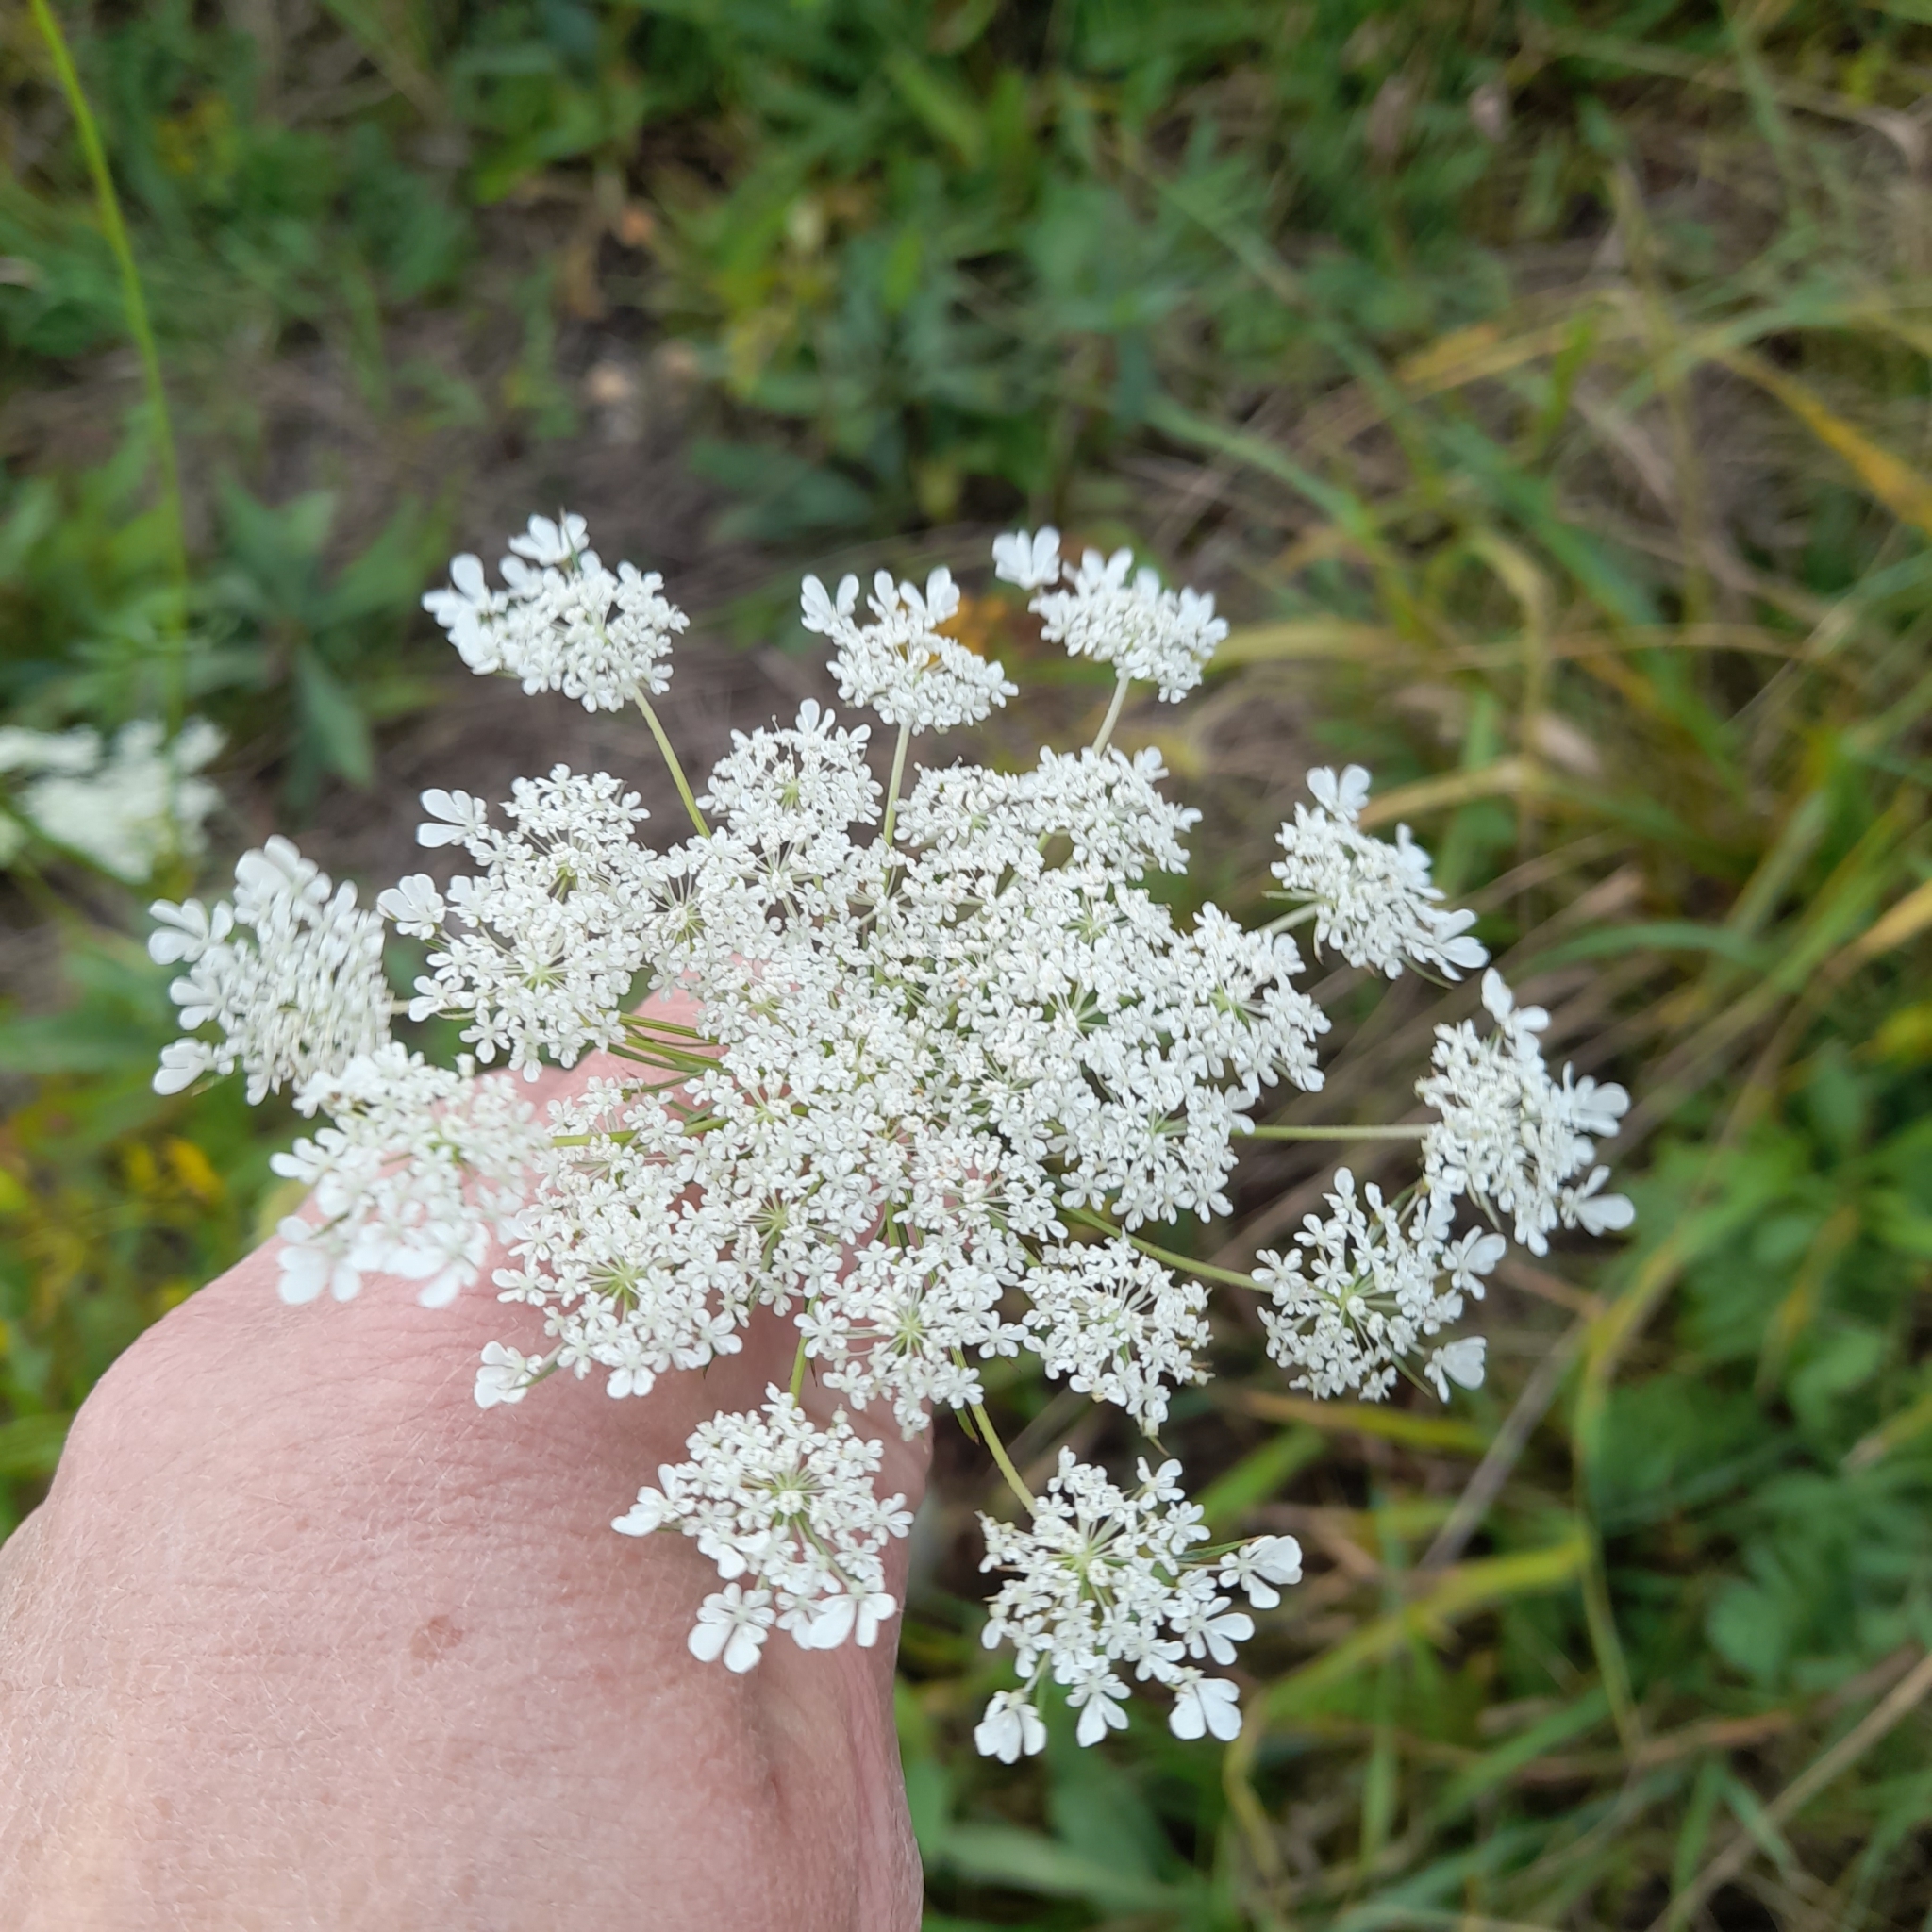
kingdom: Plantae
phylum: Tracheophyta
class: Magnoliopsida
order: Apiales
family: Apiaceae
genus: Daucus
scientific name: Daucus carota
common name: Wild carrot
